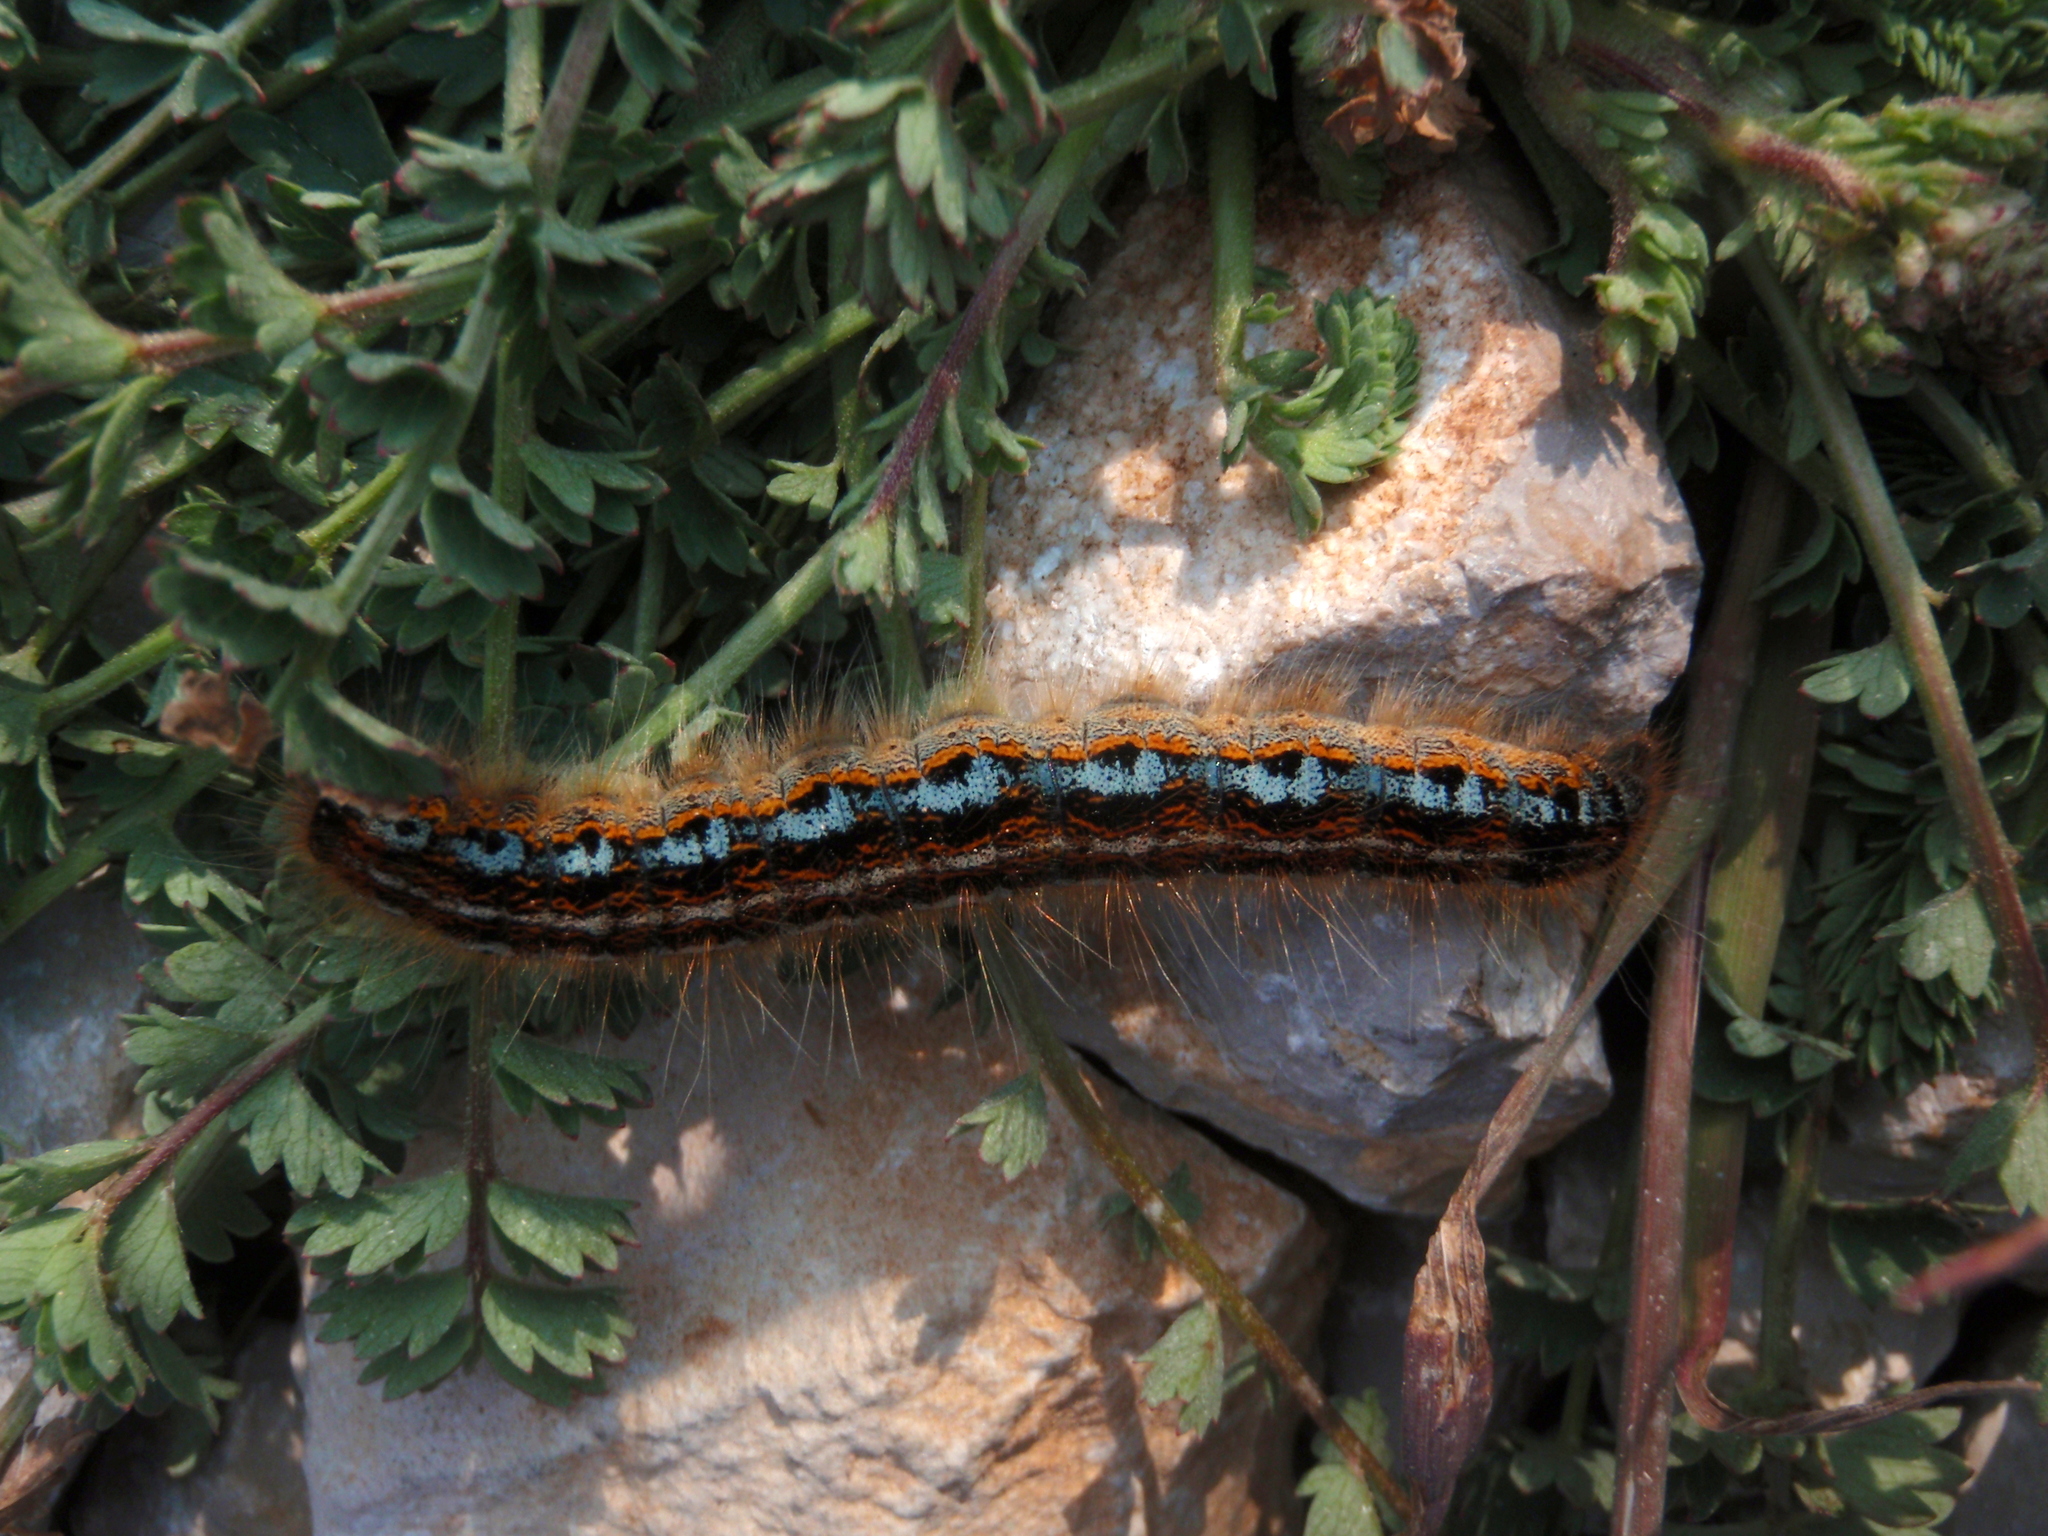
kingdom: Animalia
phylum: Arthropoda
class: Insecta
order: Lepidoptera
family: Lasiocampidae
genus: Malacosoma
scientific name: Malacosoma castrense
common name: Ground lackey
